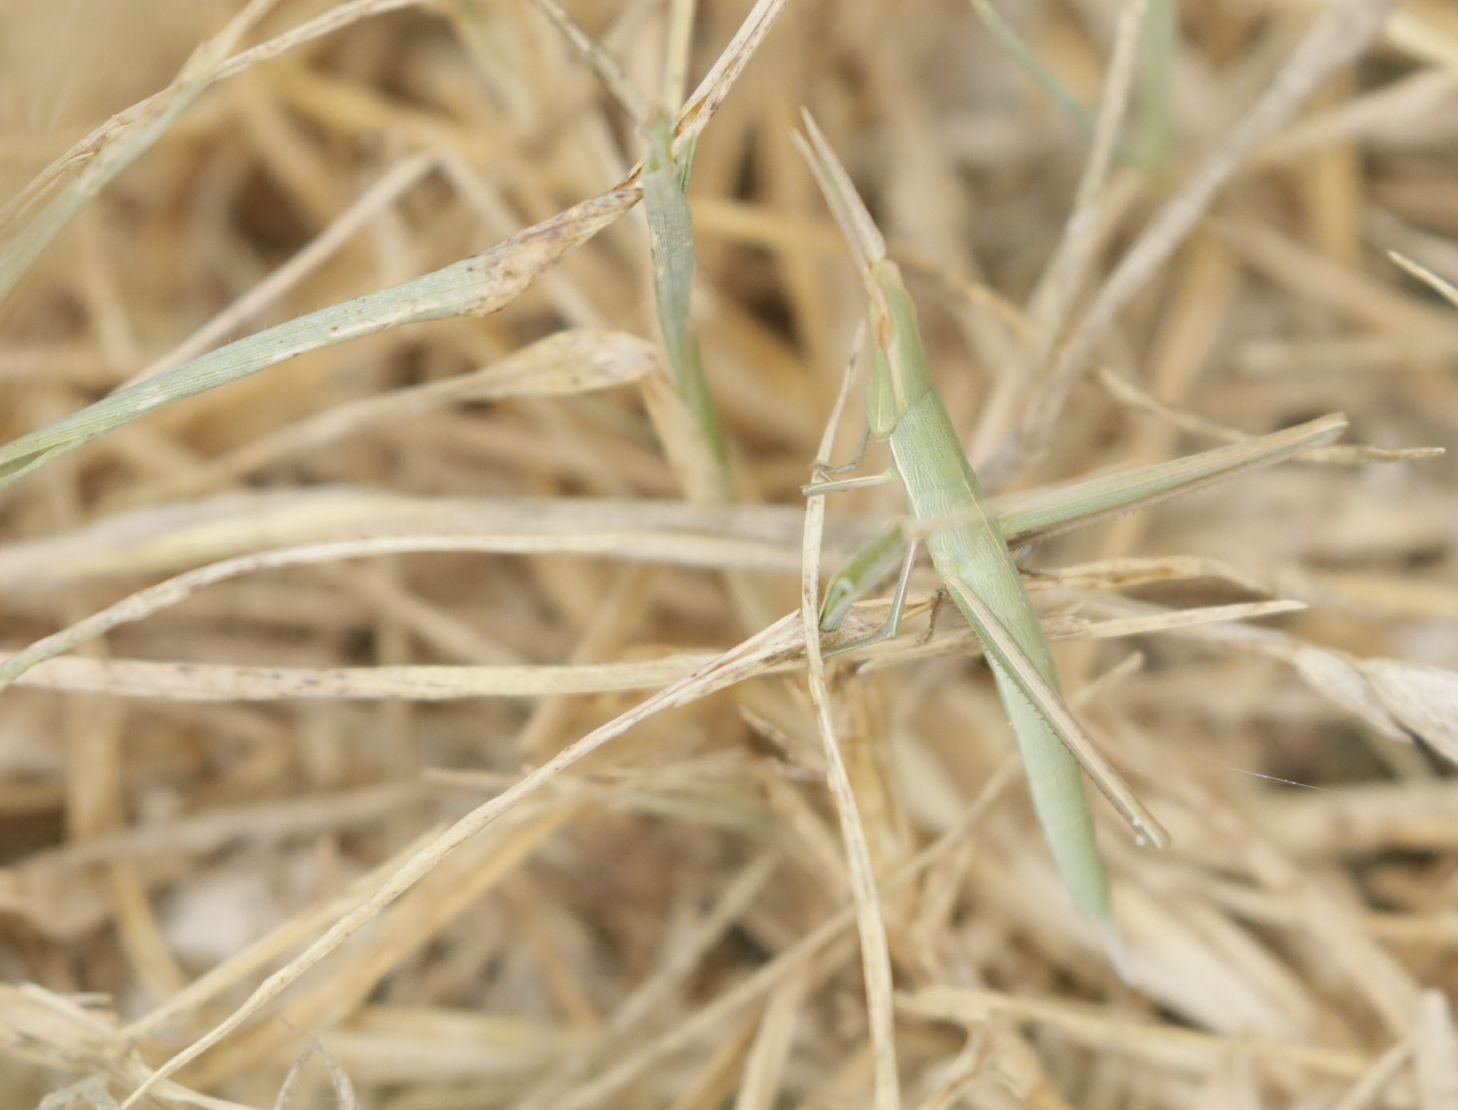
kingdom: Animalia
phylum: Arthropoda
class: Insecta
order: Orthoptera
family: Acrididae
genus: Acrida
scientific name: Acrida ungarica
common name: Common cone-headed grasshopper
